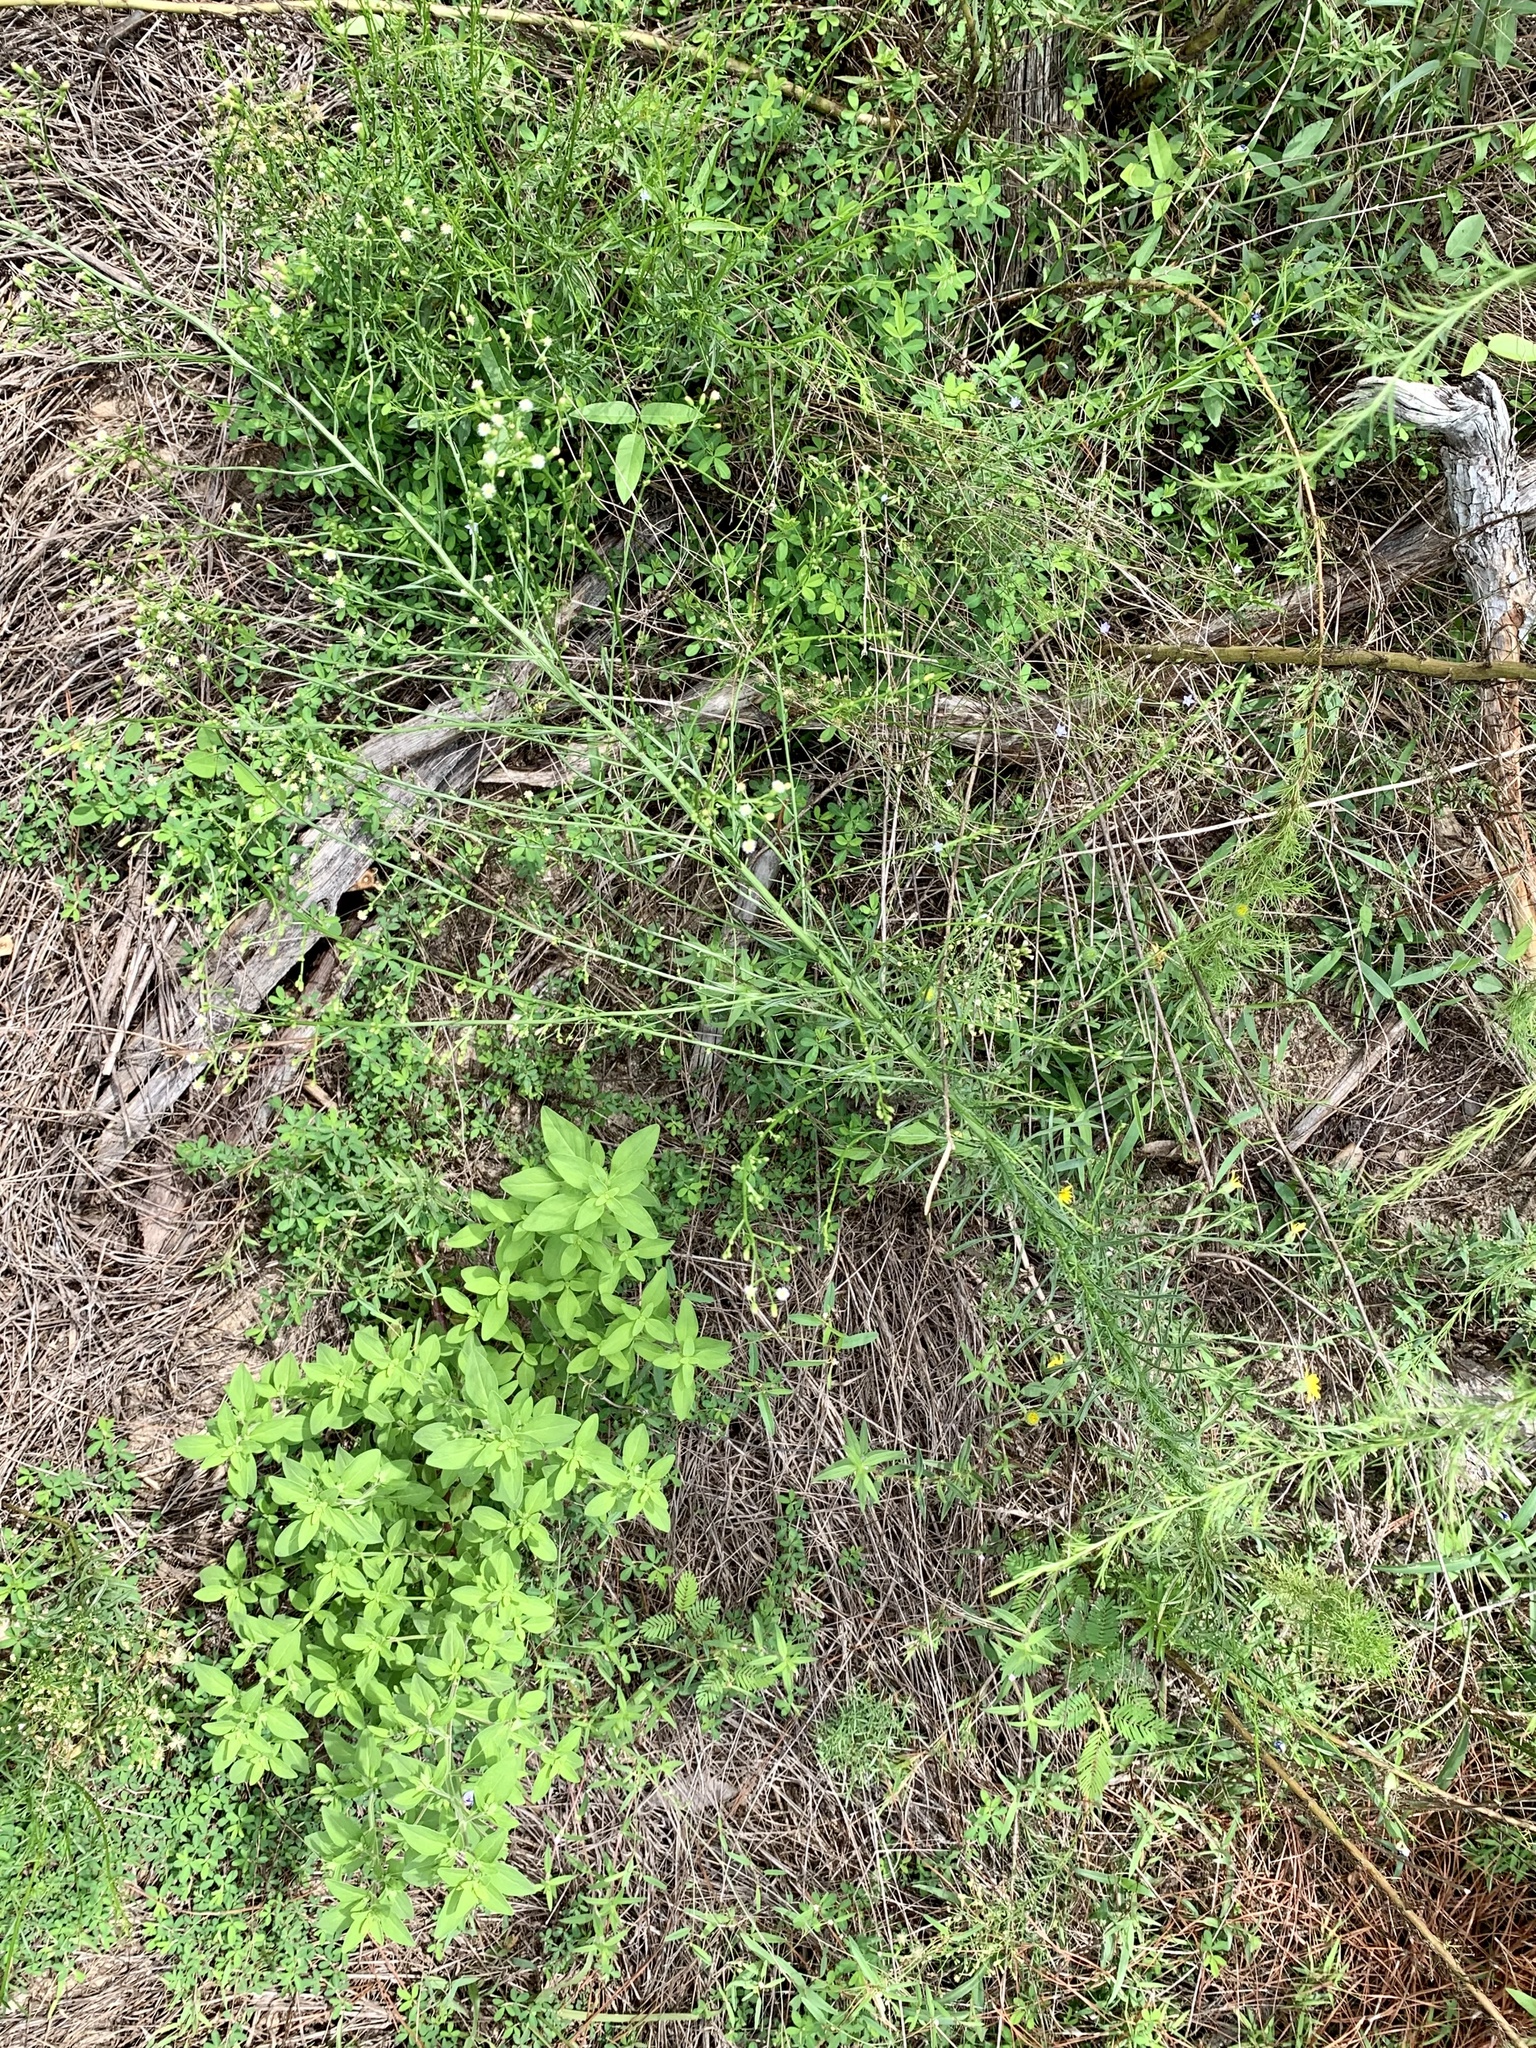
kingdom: Plantae
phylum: Tracheophyta
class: Magnoliopsida
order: Asterales
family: Asteraceae
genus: Erigeron
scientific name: Erigeron canadensis
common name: Canadian fleabane
